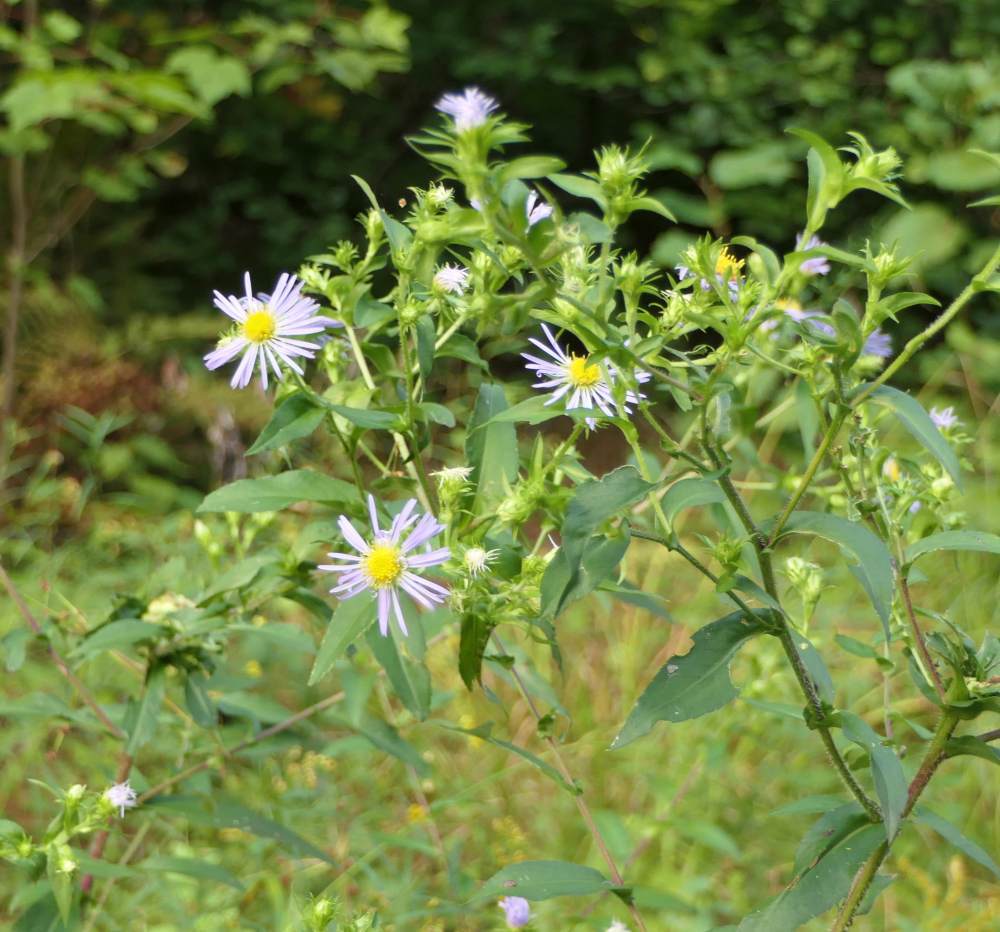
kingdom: Plantae
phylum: Tracheophyta
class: Magnoliopsida
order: Asterales
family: Asteraceae
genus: Symphyotrichum
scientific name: Symphyotrichum puniceum
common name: Bog aster
